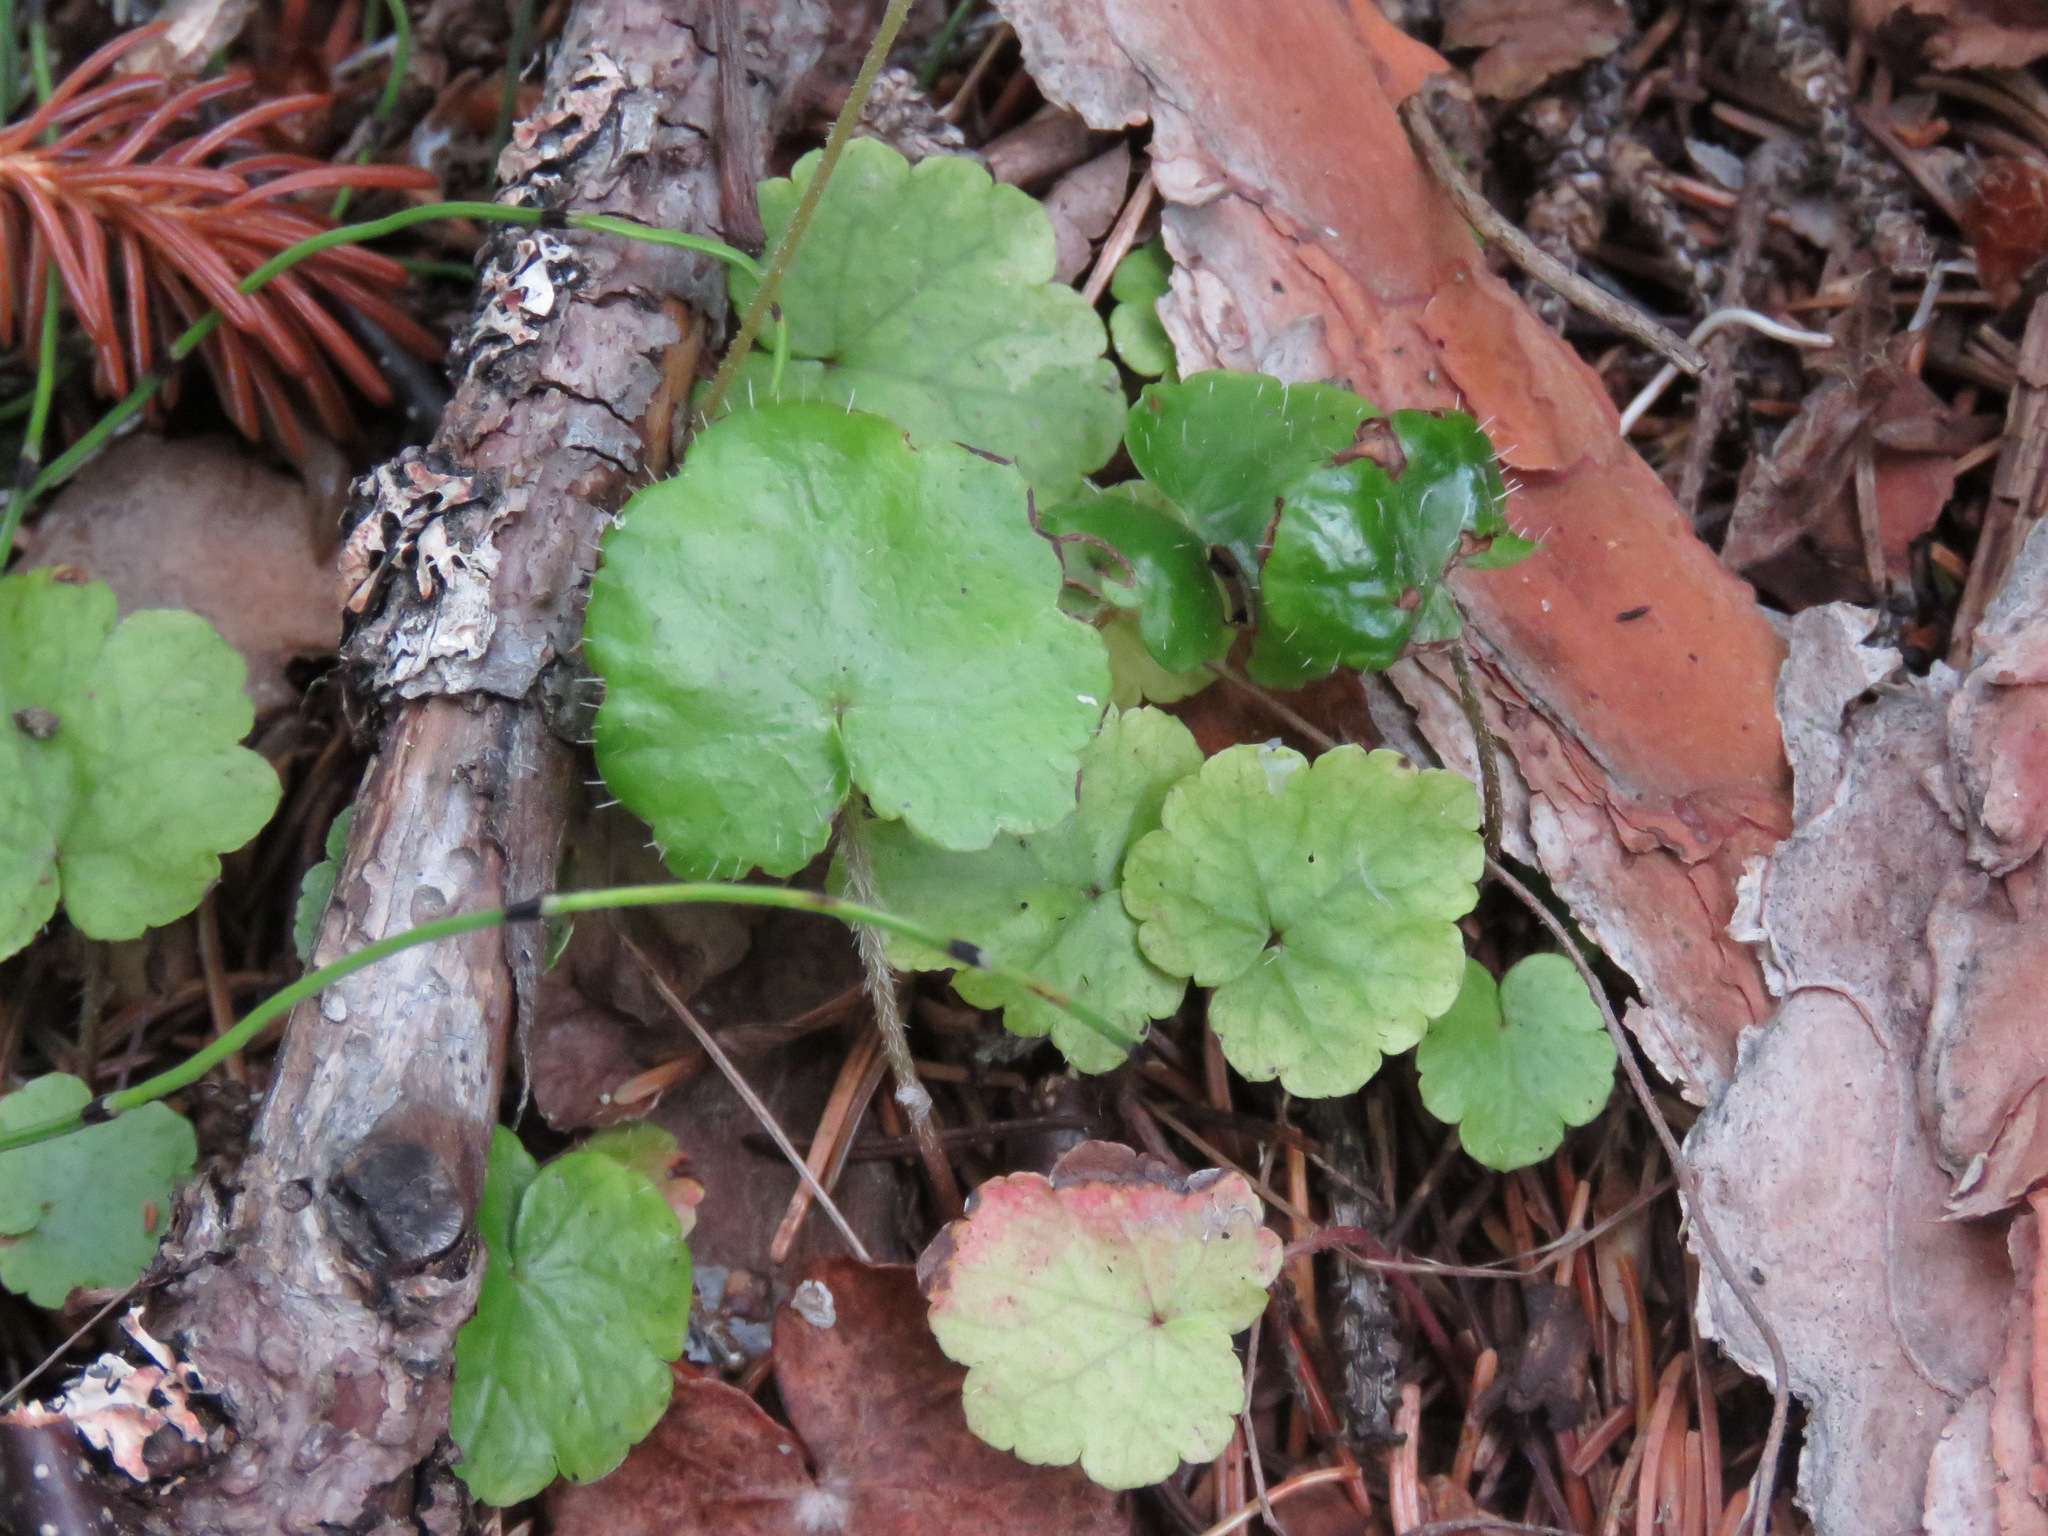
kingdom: Plantae
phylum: Tracheophyta
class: Magnoliopsida
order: Saxifragales
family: Saxifragaceae
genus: Mitella
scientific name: Mitella nuda
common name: Bare-stemmed bishop's-cap
